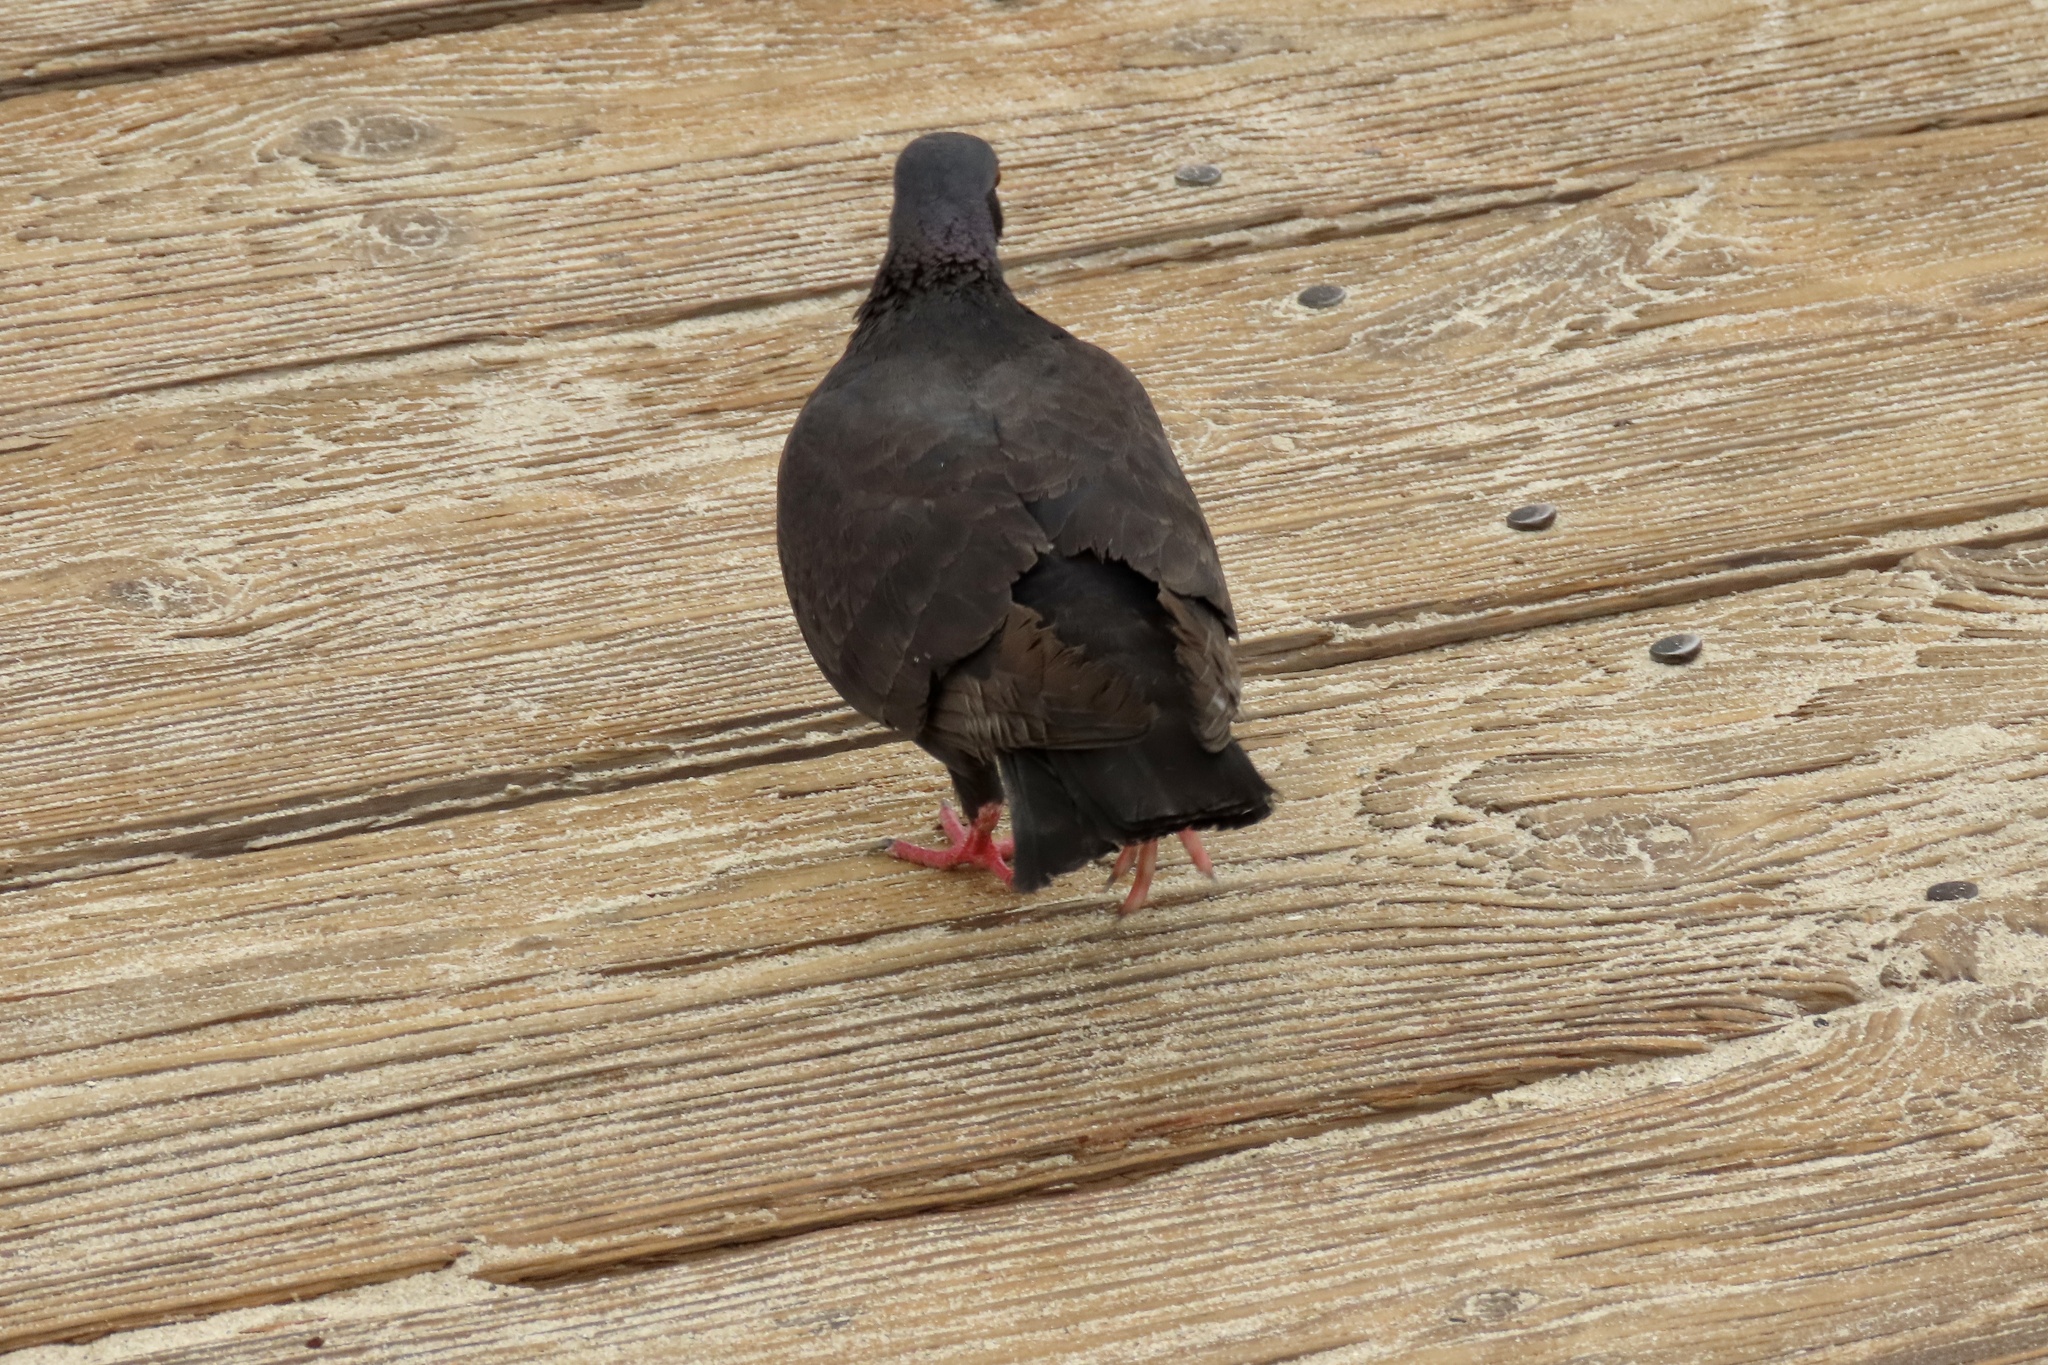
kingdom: Animalia
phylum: Chordata
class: Aves
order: Columbiformes
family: Columbidae
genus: Columba
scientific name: Columba livia
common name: Rock pigeon
